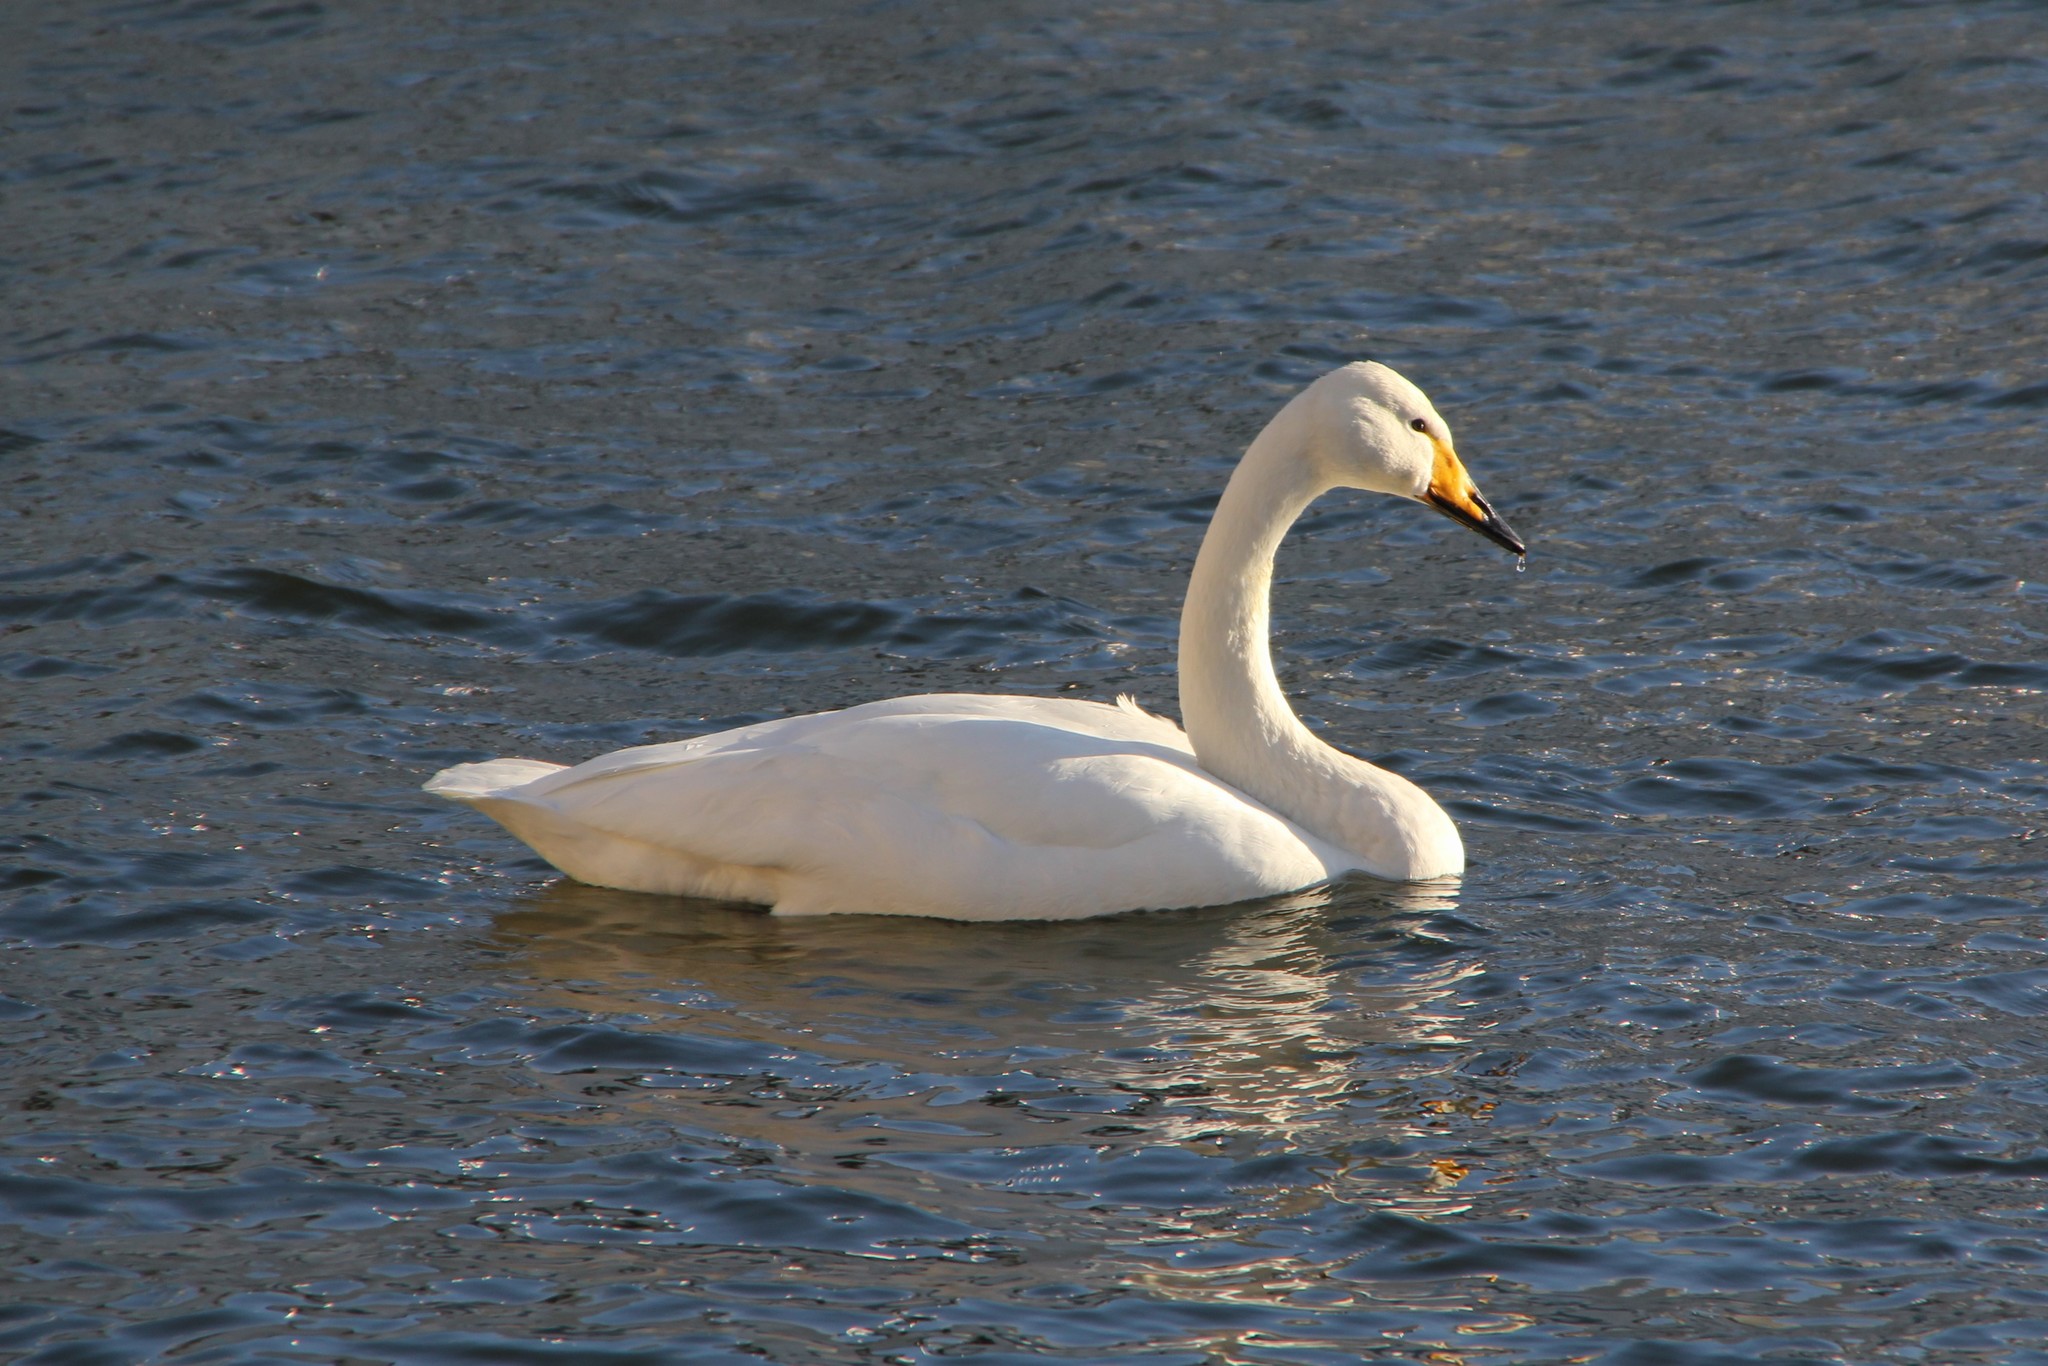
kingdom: Animalia
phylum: Chordata
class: Aves
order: Anseriformes
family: Anatidae
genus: Cygnus
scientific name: Cygnus cygnus
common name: Whooper swan
